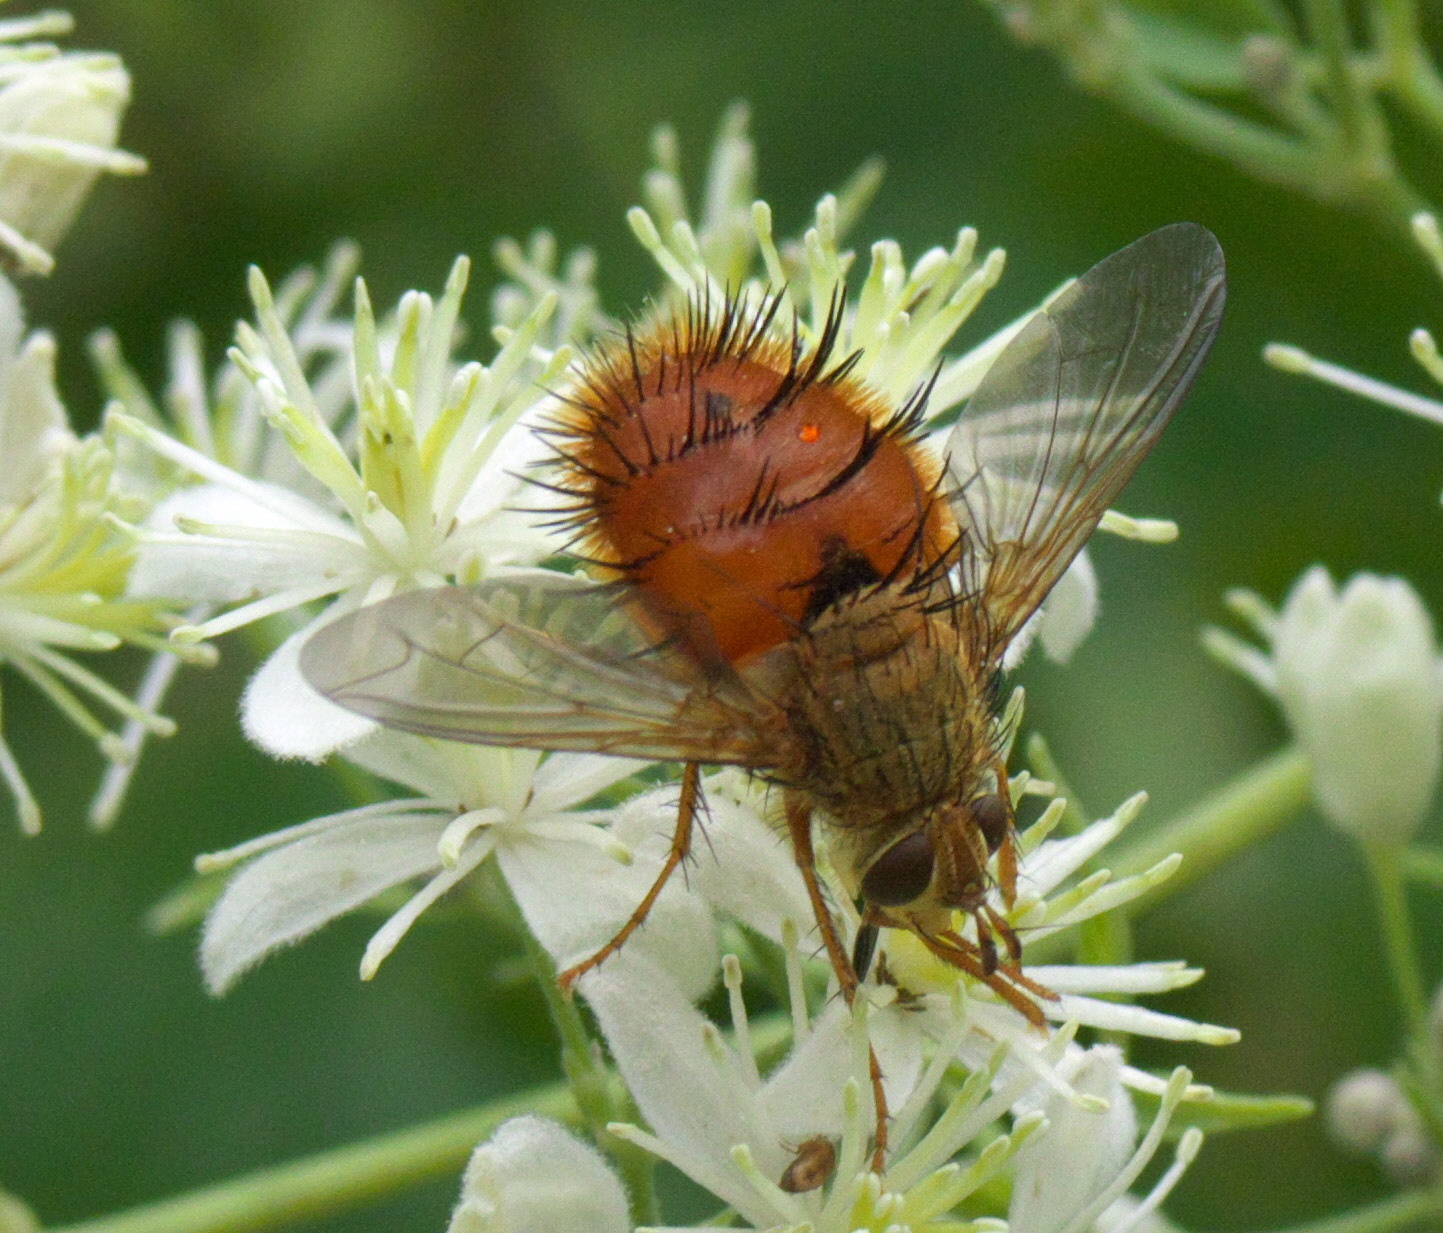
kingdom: Animalia
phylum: Arthropoda
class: Insecta
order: Diptera
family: Tachinidae
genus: Adejeania
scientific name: Adejeania vexatrix
